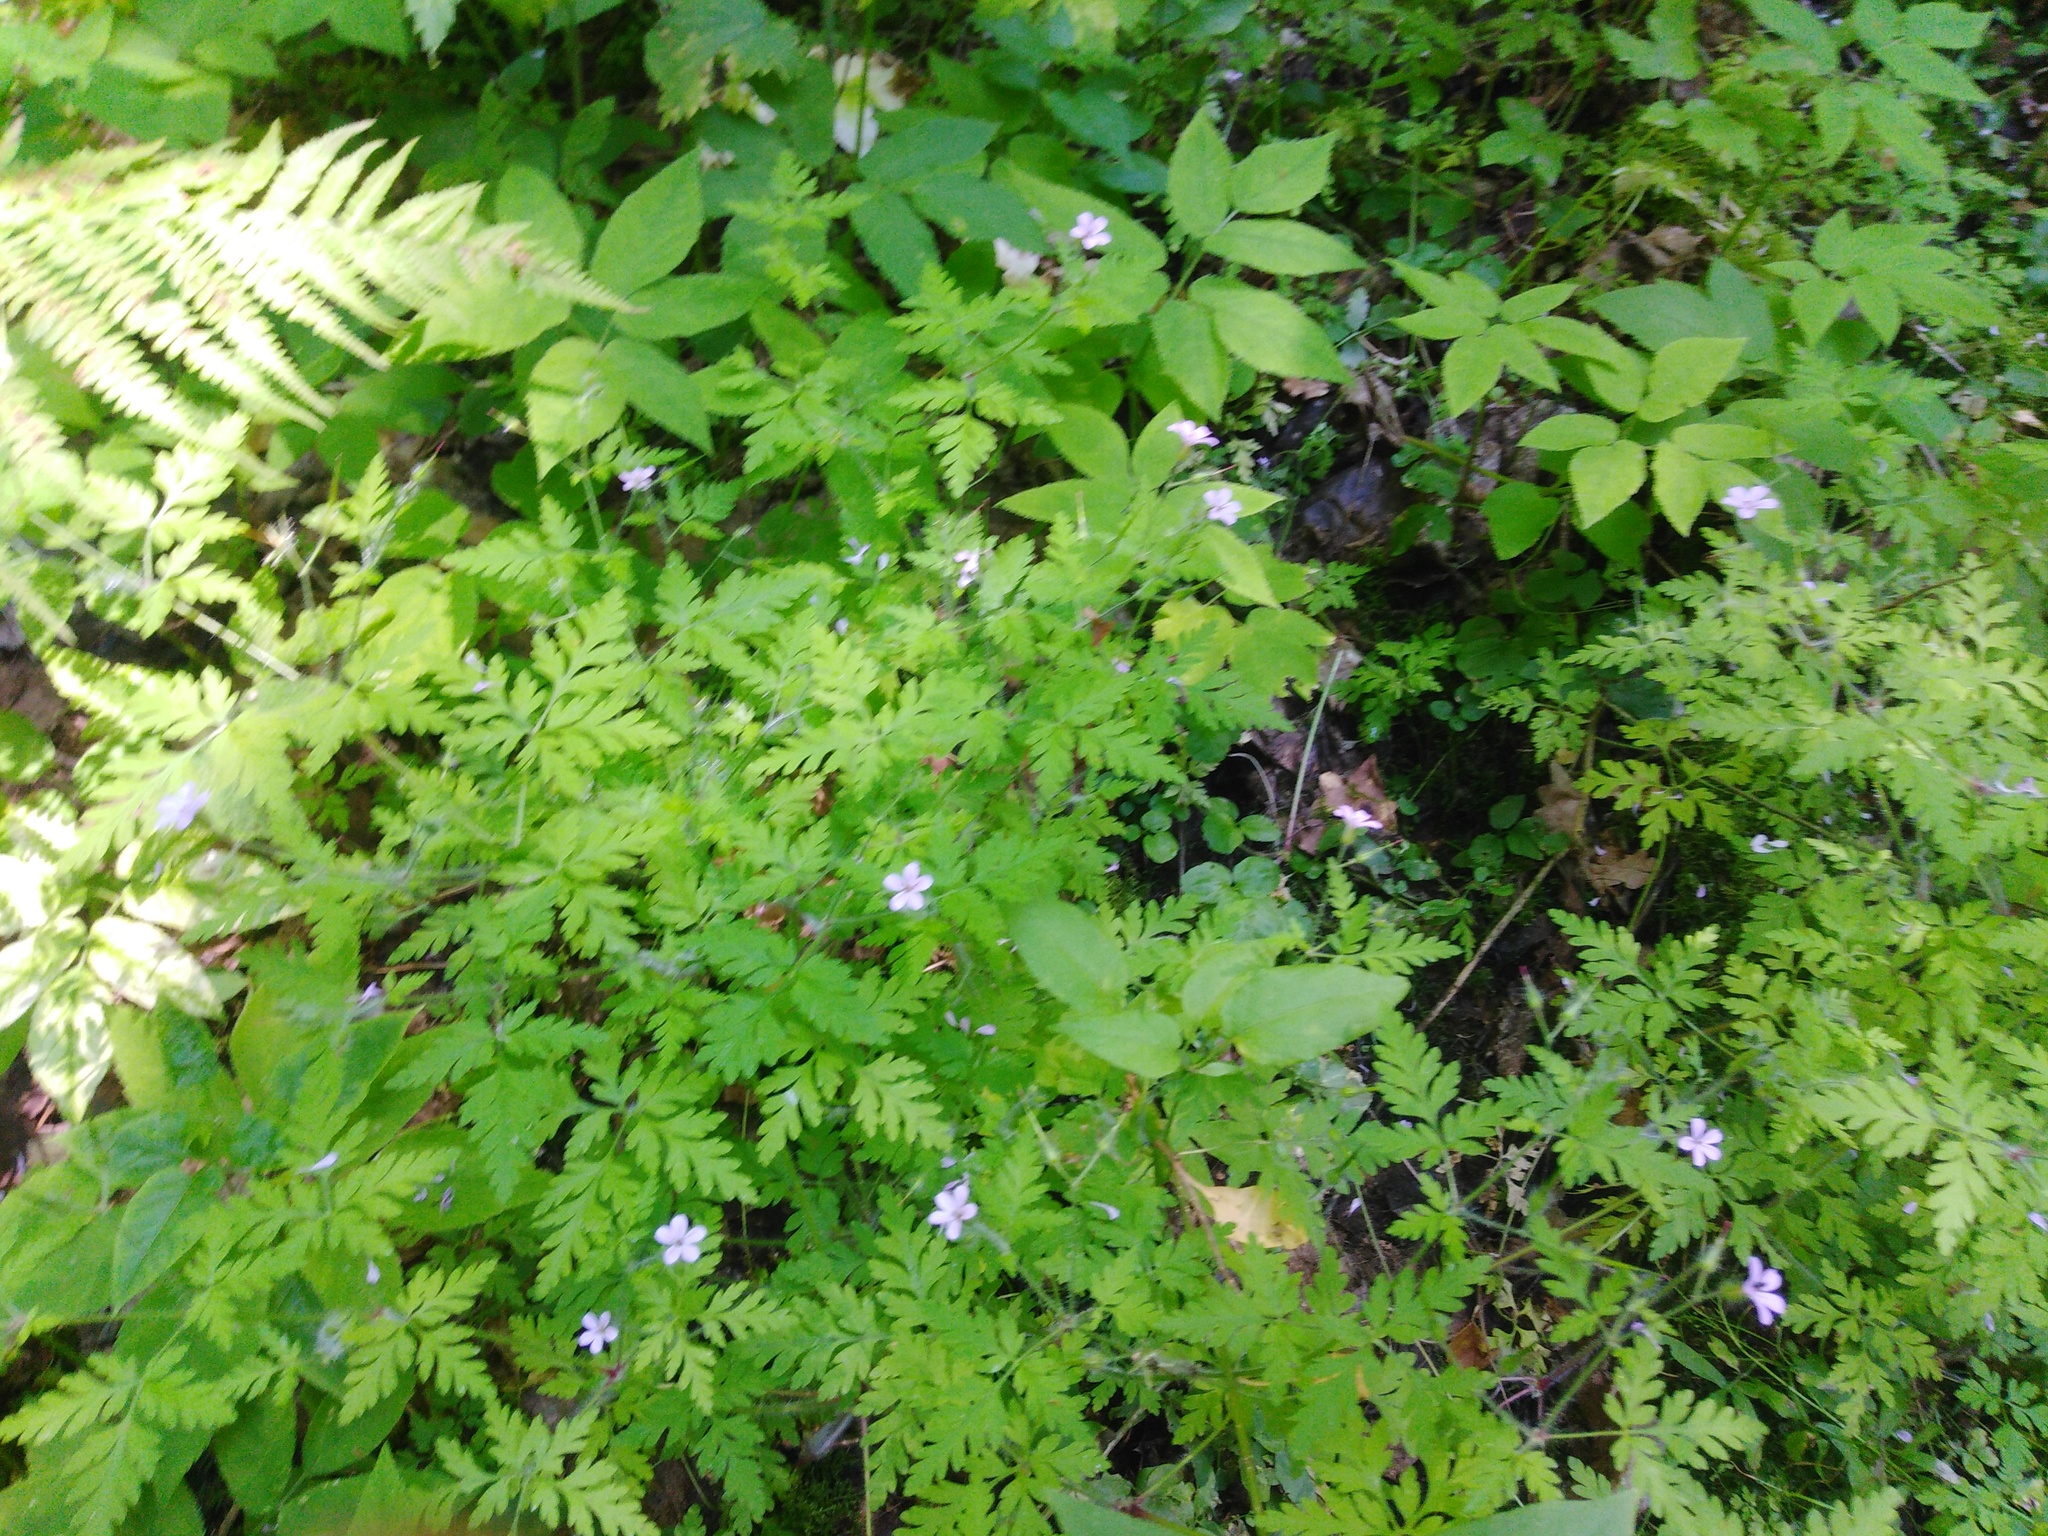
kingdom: Plantae
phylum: Tracheophyta
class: Magnoliopsida
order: Geraniales
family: Geraniaceae
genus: Geranium
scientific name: Geranium robertianum
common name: Herb-robert
